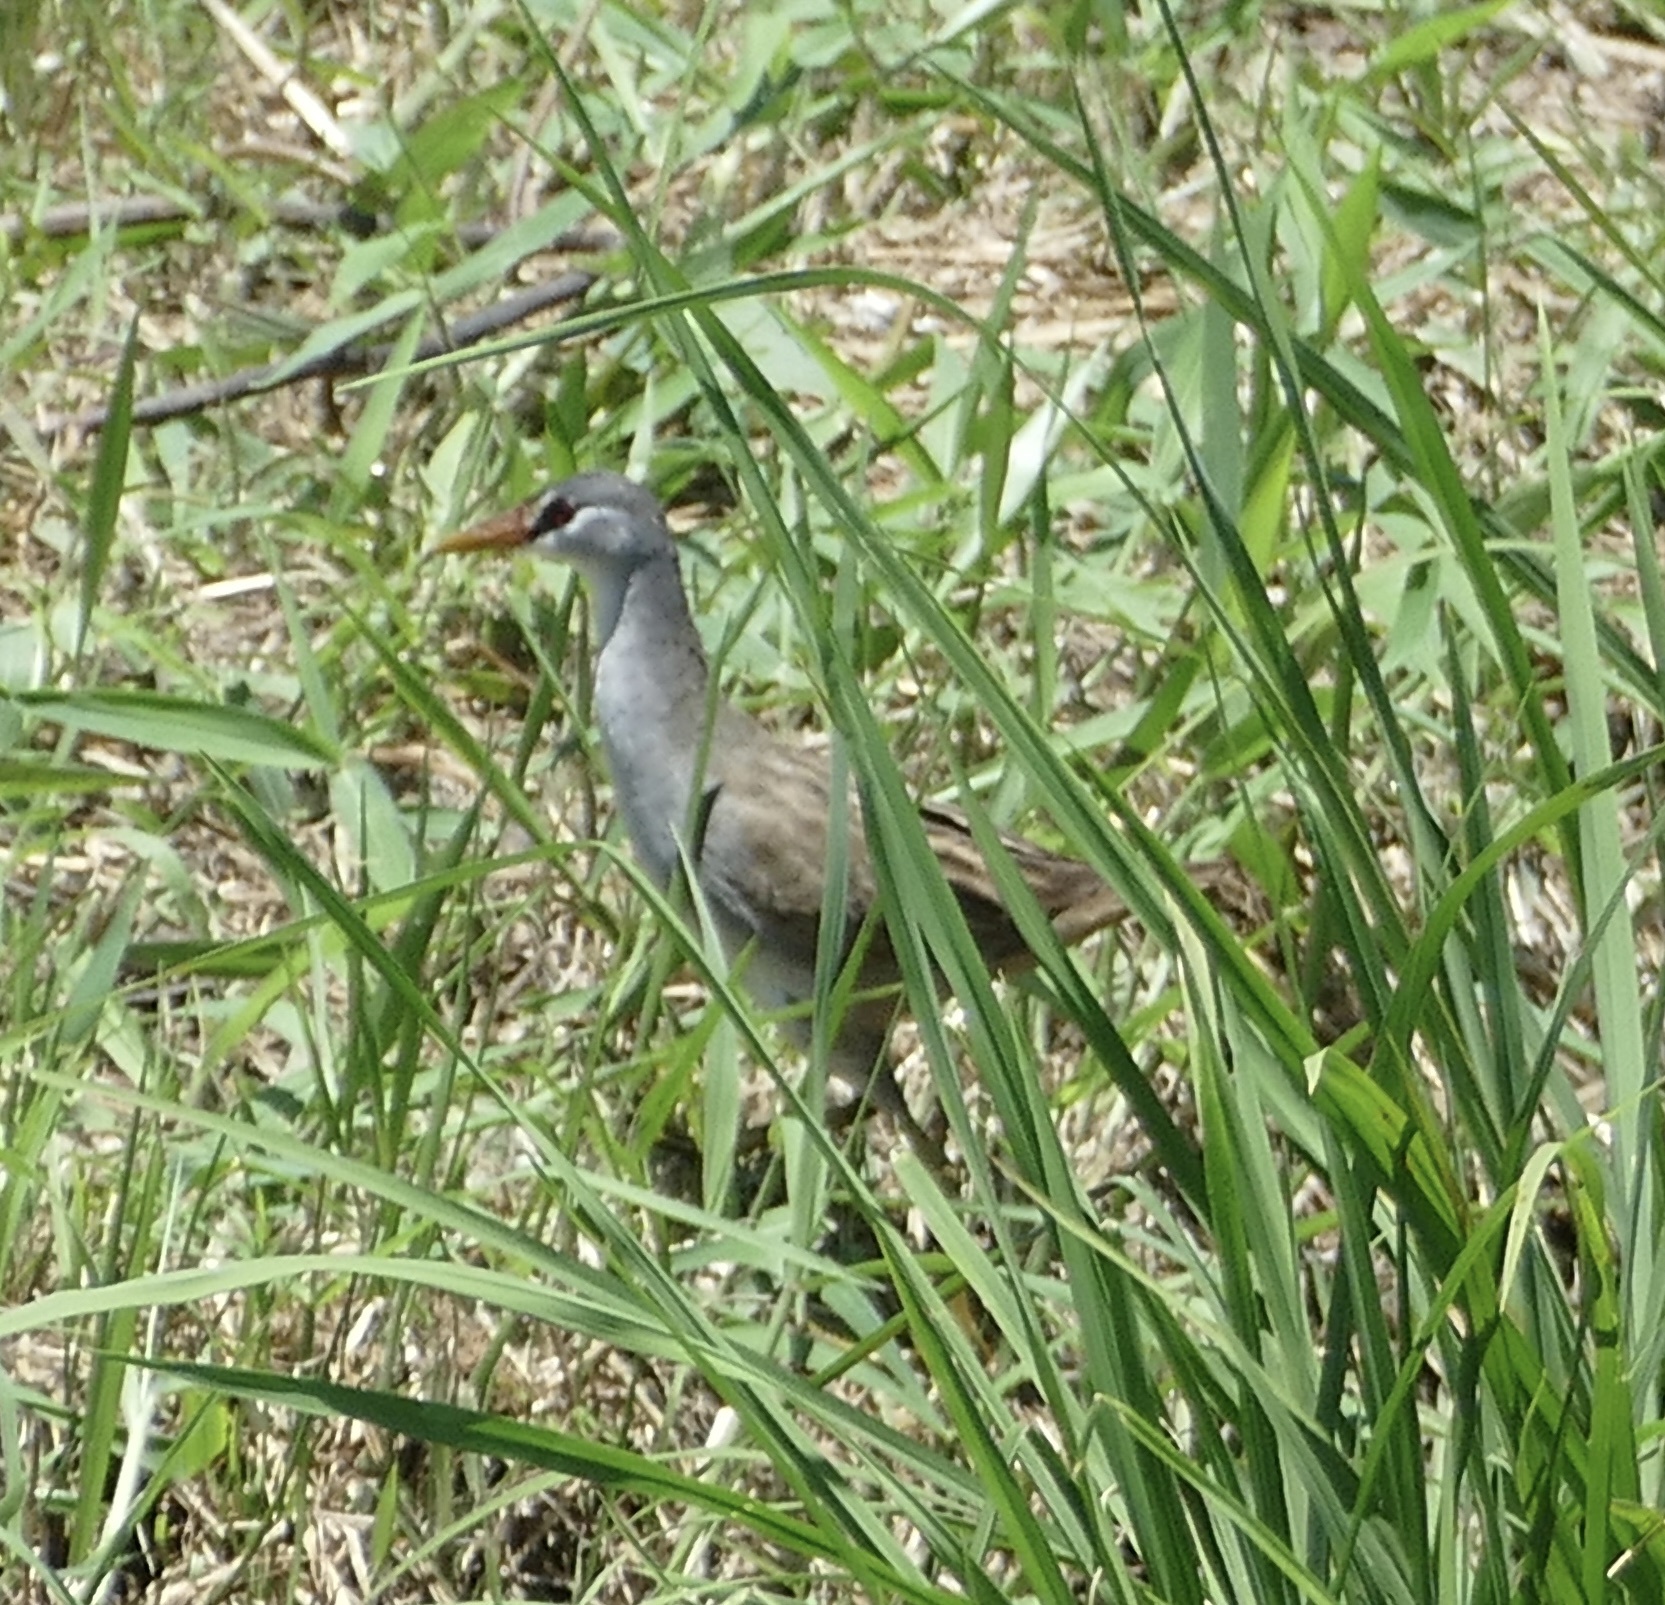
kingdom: Animalia
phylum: Chordata
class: Aves
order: Gruiformes
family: Rallidae
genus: Porzana
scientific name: Porzana cinerea
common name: White-browed crake
